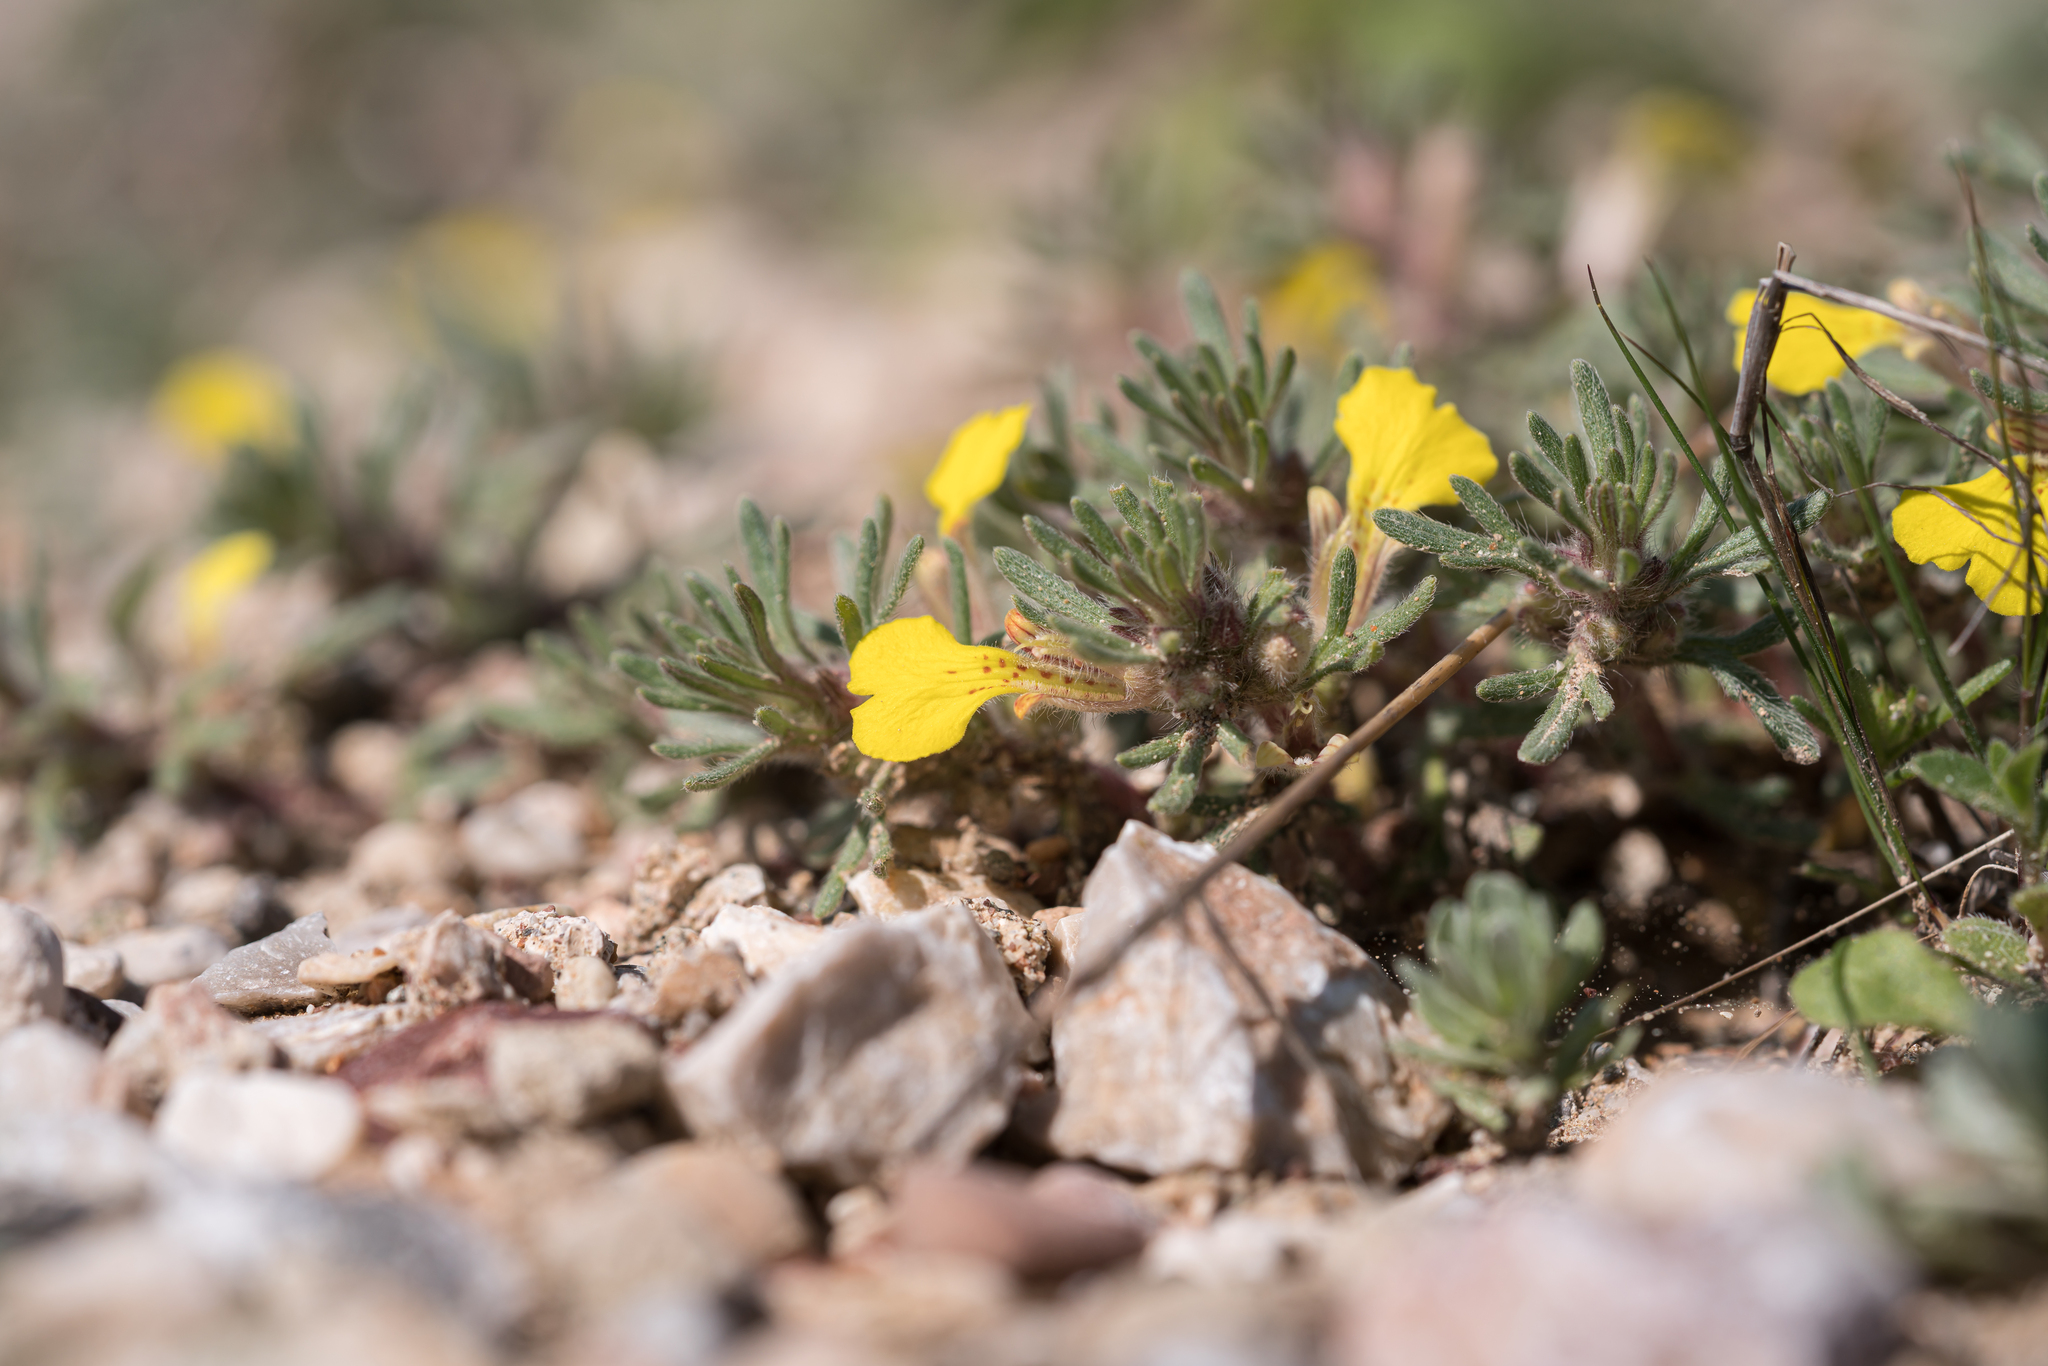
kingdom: Plantae
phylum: Tracheophyta
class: Magnoliopsida
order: Lamiales
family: Lamiaceae
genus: Ajuga
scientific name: Ajuga chamaepitys
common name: Ground-pine
